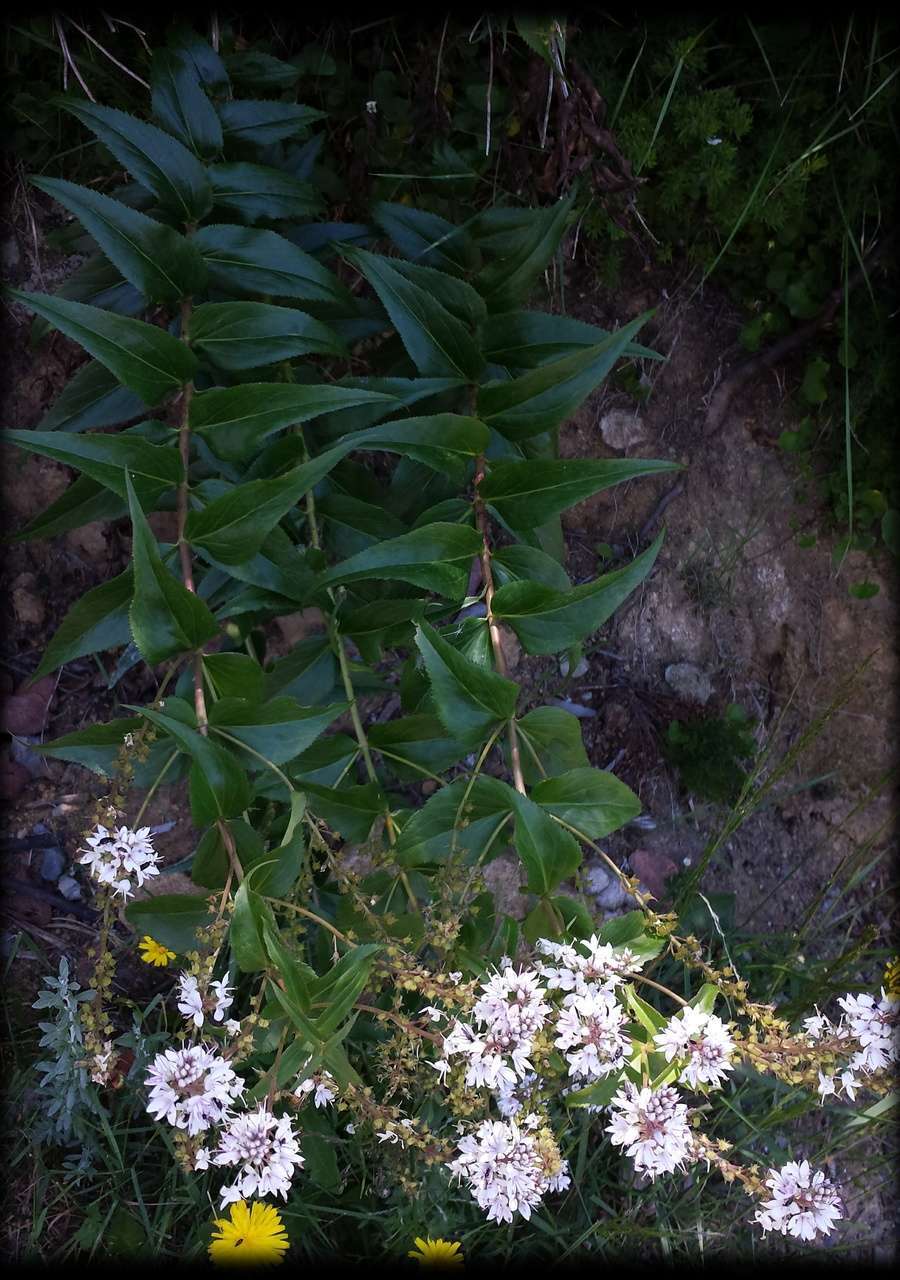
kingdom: Plantae
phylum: Tracheophyta
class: Magnoliopsida
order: Lamiales
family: Plantaginaceae
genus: Veronica
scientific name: Veronica derwentiana
